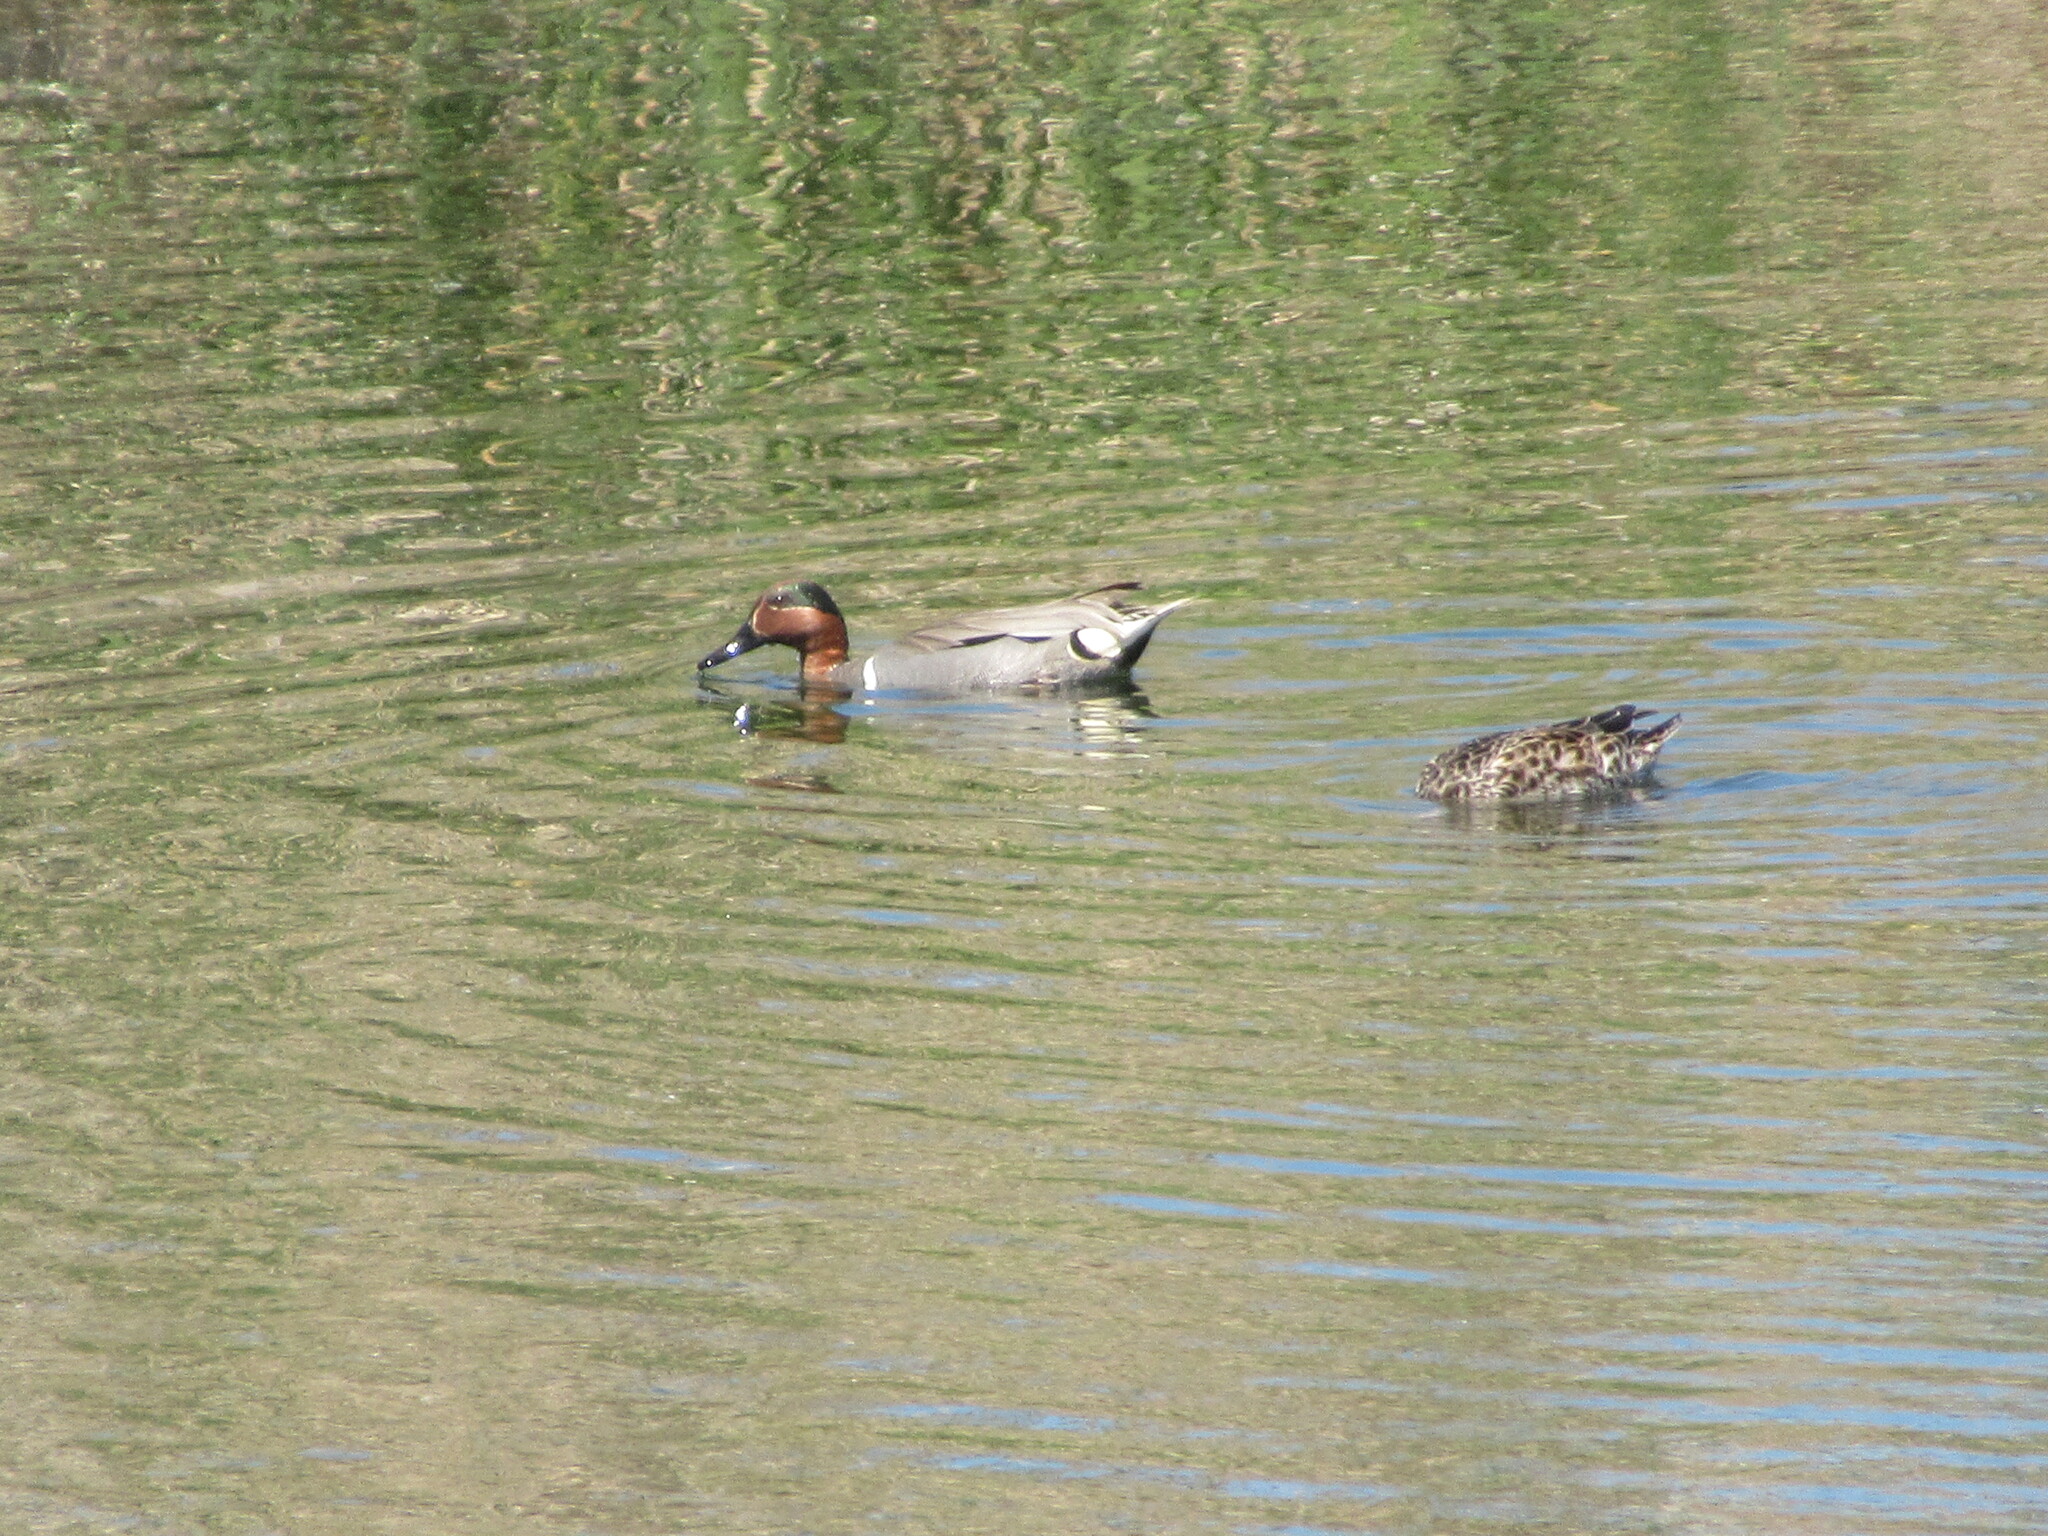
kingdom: Animalia
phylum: Chordata
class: Aves
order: Anseriformes
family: Anatidae
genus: Anas
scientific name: Anas crecca
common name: Eurasian teal
